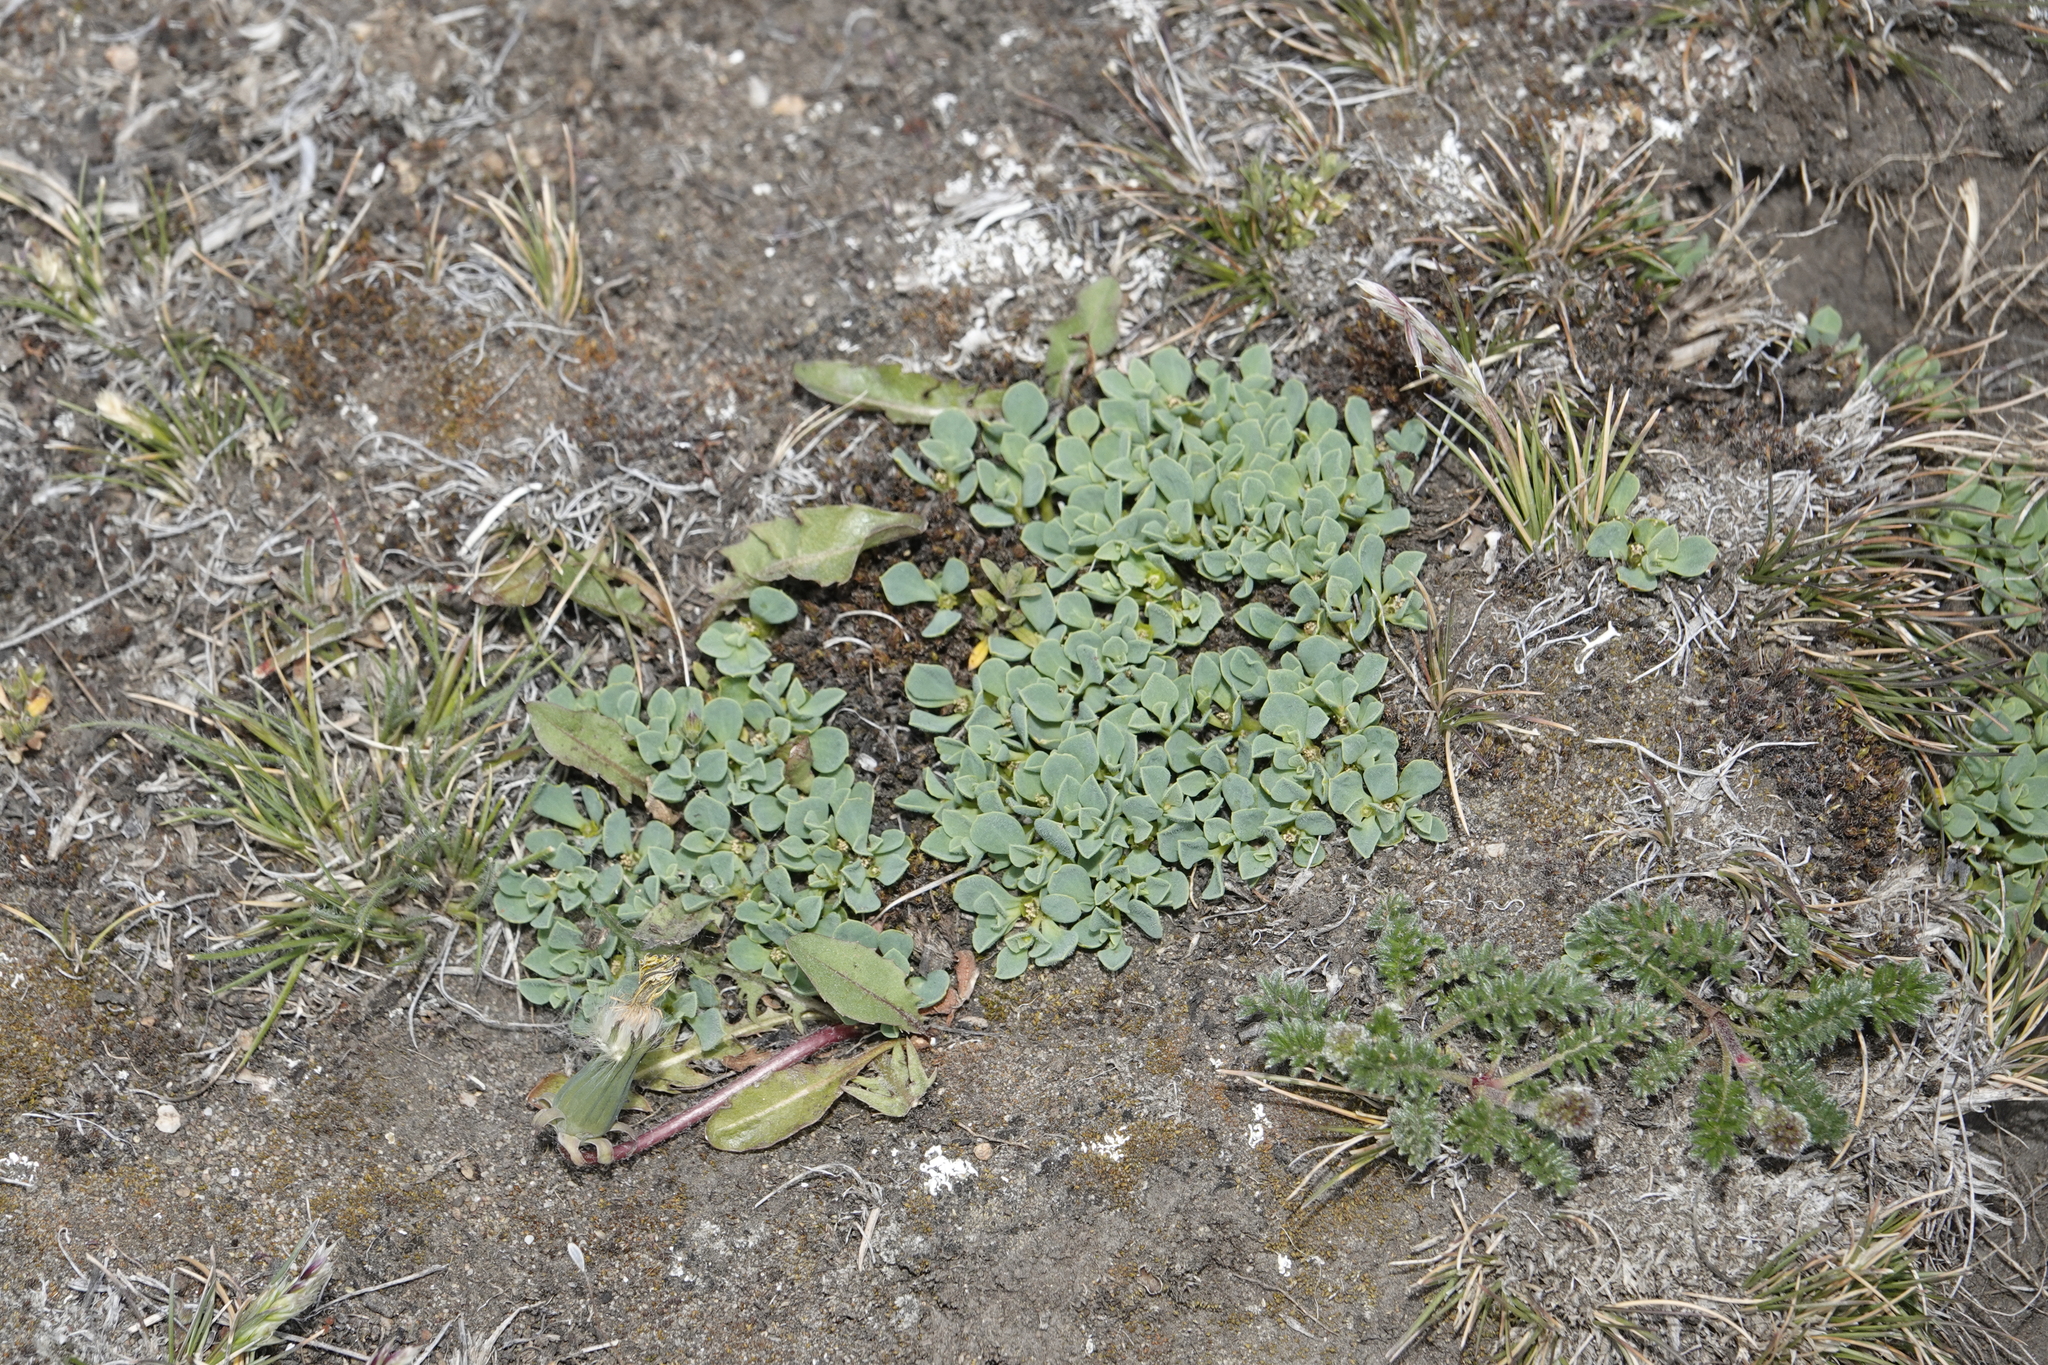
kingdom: Plantae
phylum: Tracheophyta
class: Magnoliopsida
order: Malpighiales
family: Euphorbiaceae
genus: Euphorbia
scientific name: Euphorbia collina
